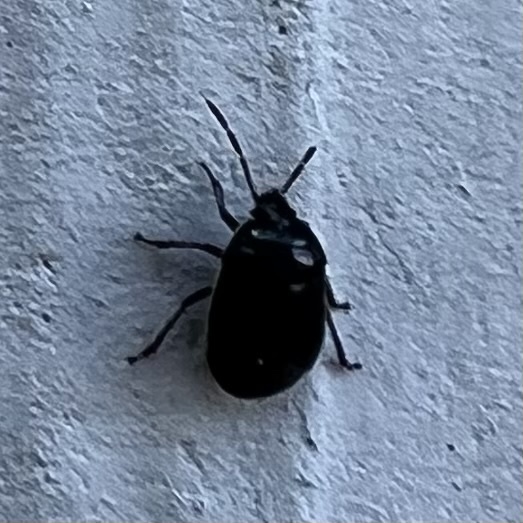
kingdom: Animalia
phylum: Arthropoda
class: Insecta
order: Hemiptera
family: Cydnidae
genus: Sehirus
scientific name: Sehirus cinctus
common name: White-margined burrower bug
